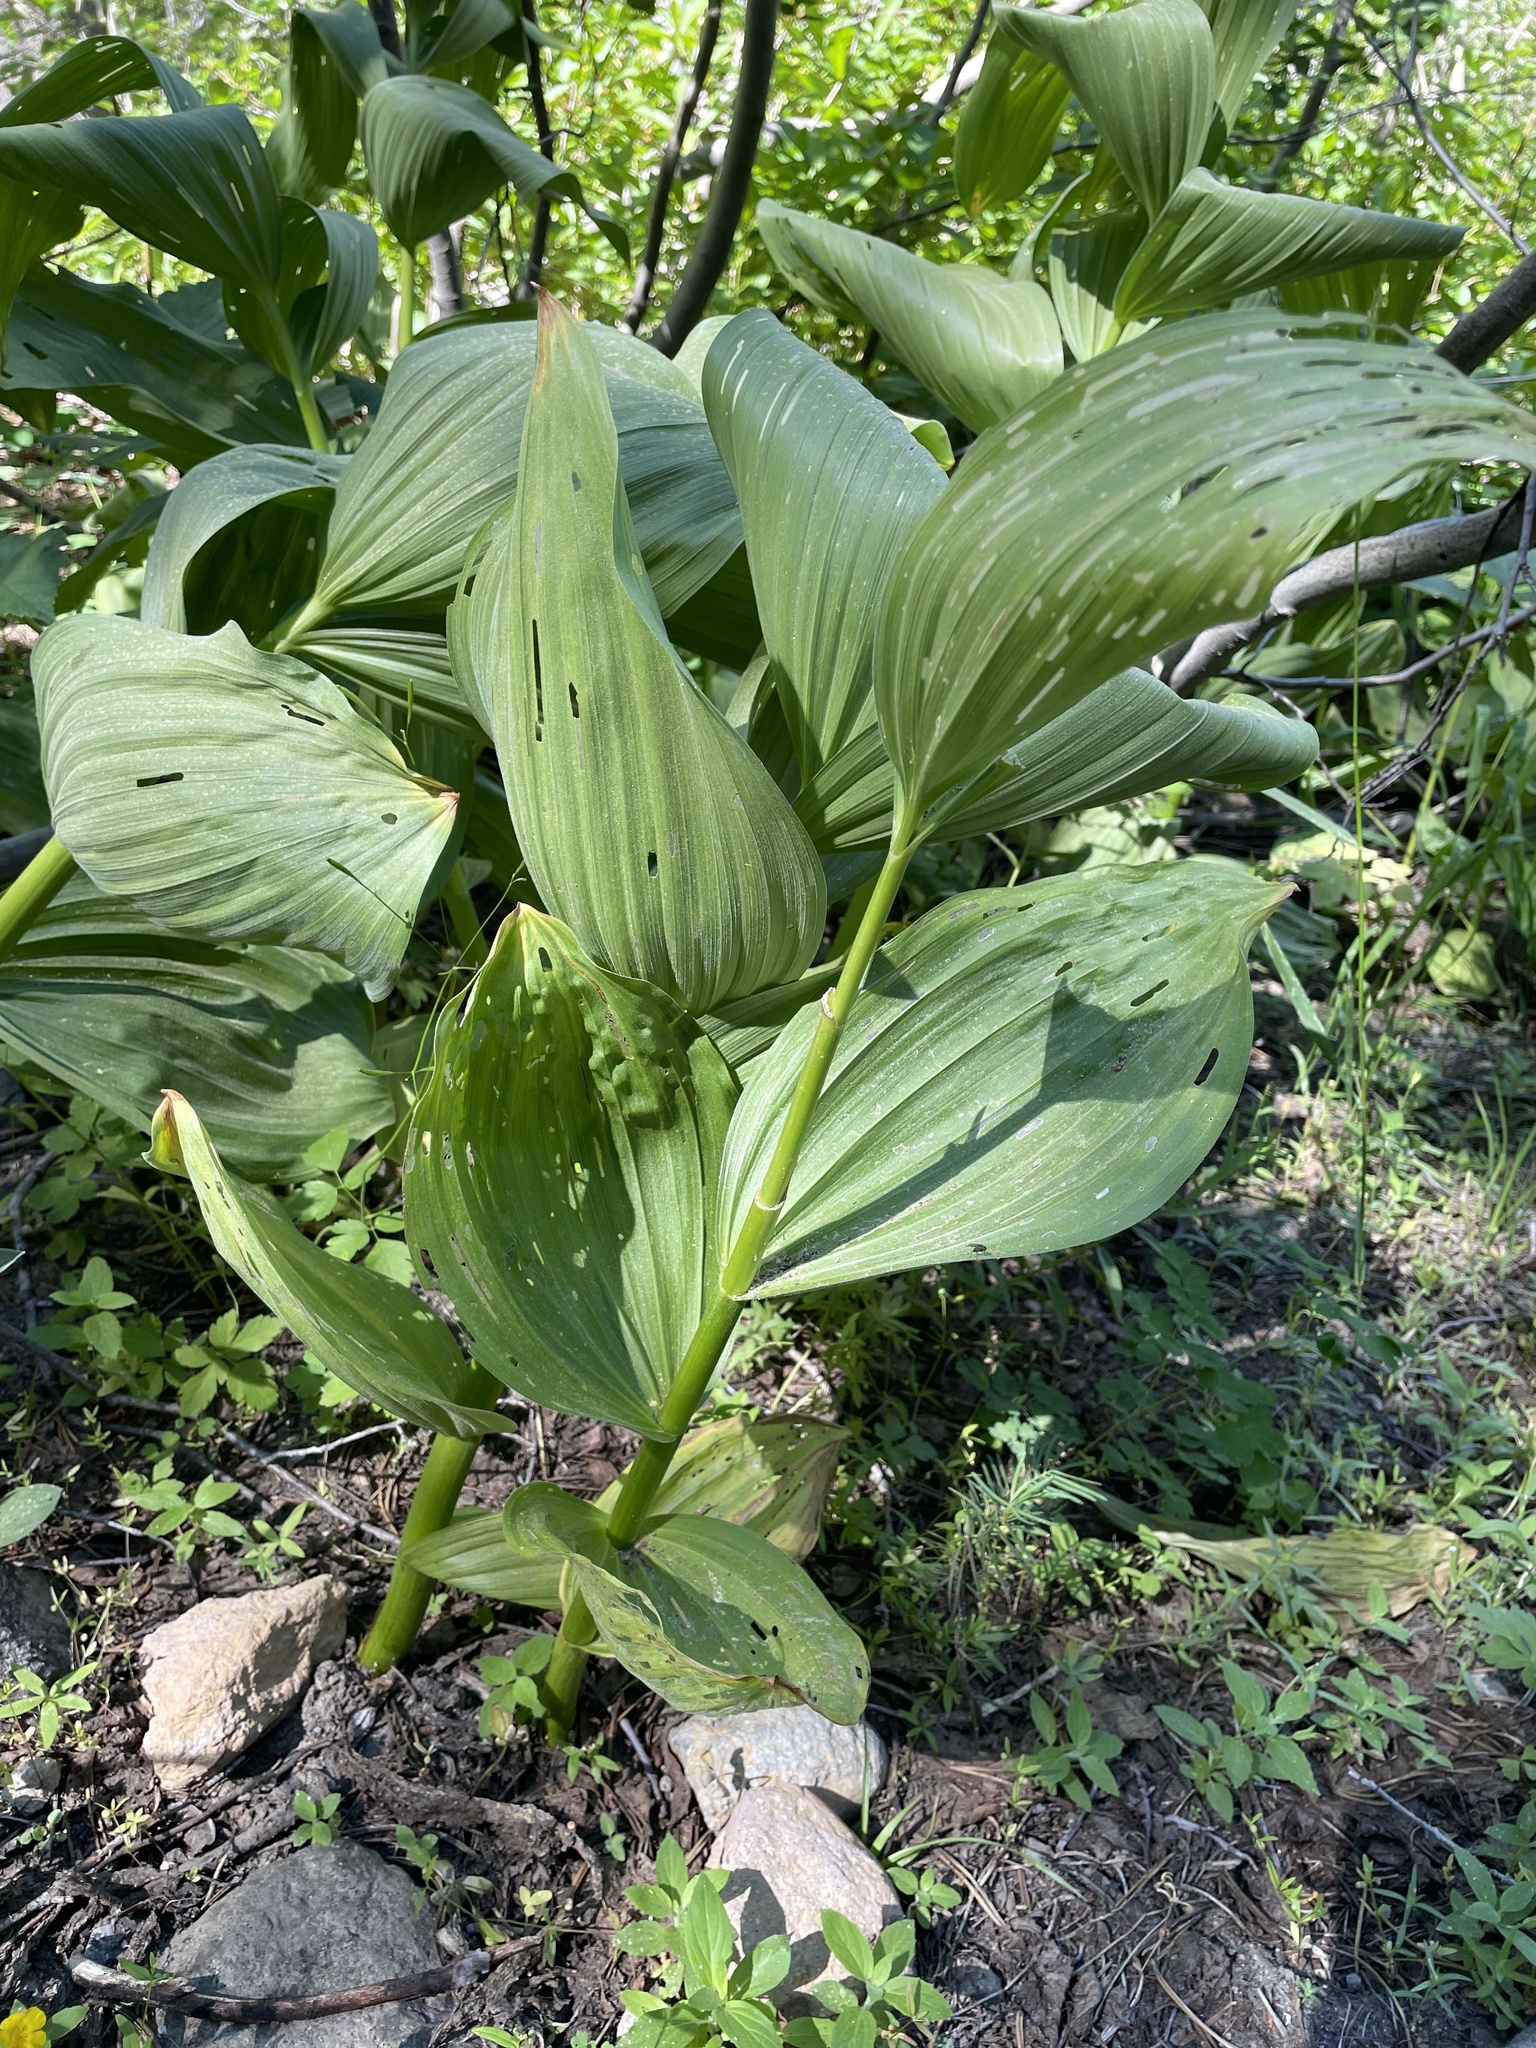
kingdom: Plantae
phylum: Tracheophyta
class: Liliopsida
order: Liliales
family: Melanthiaceae
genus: Veratrum
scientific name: Veratrum californicum
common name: California veratrum
